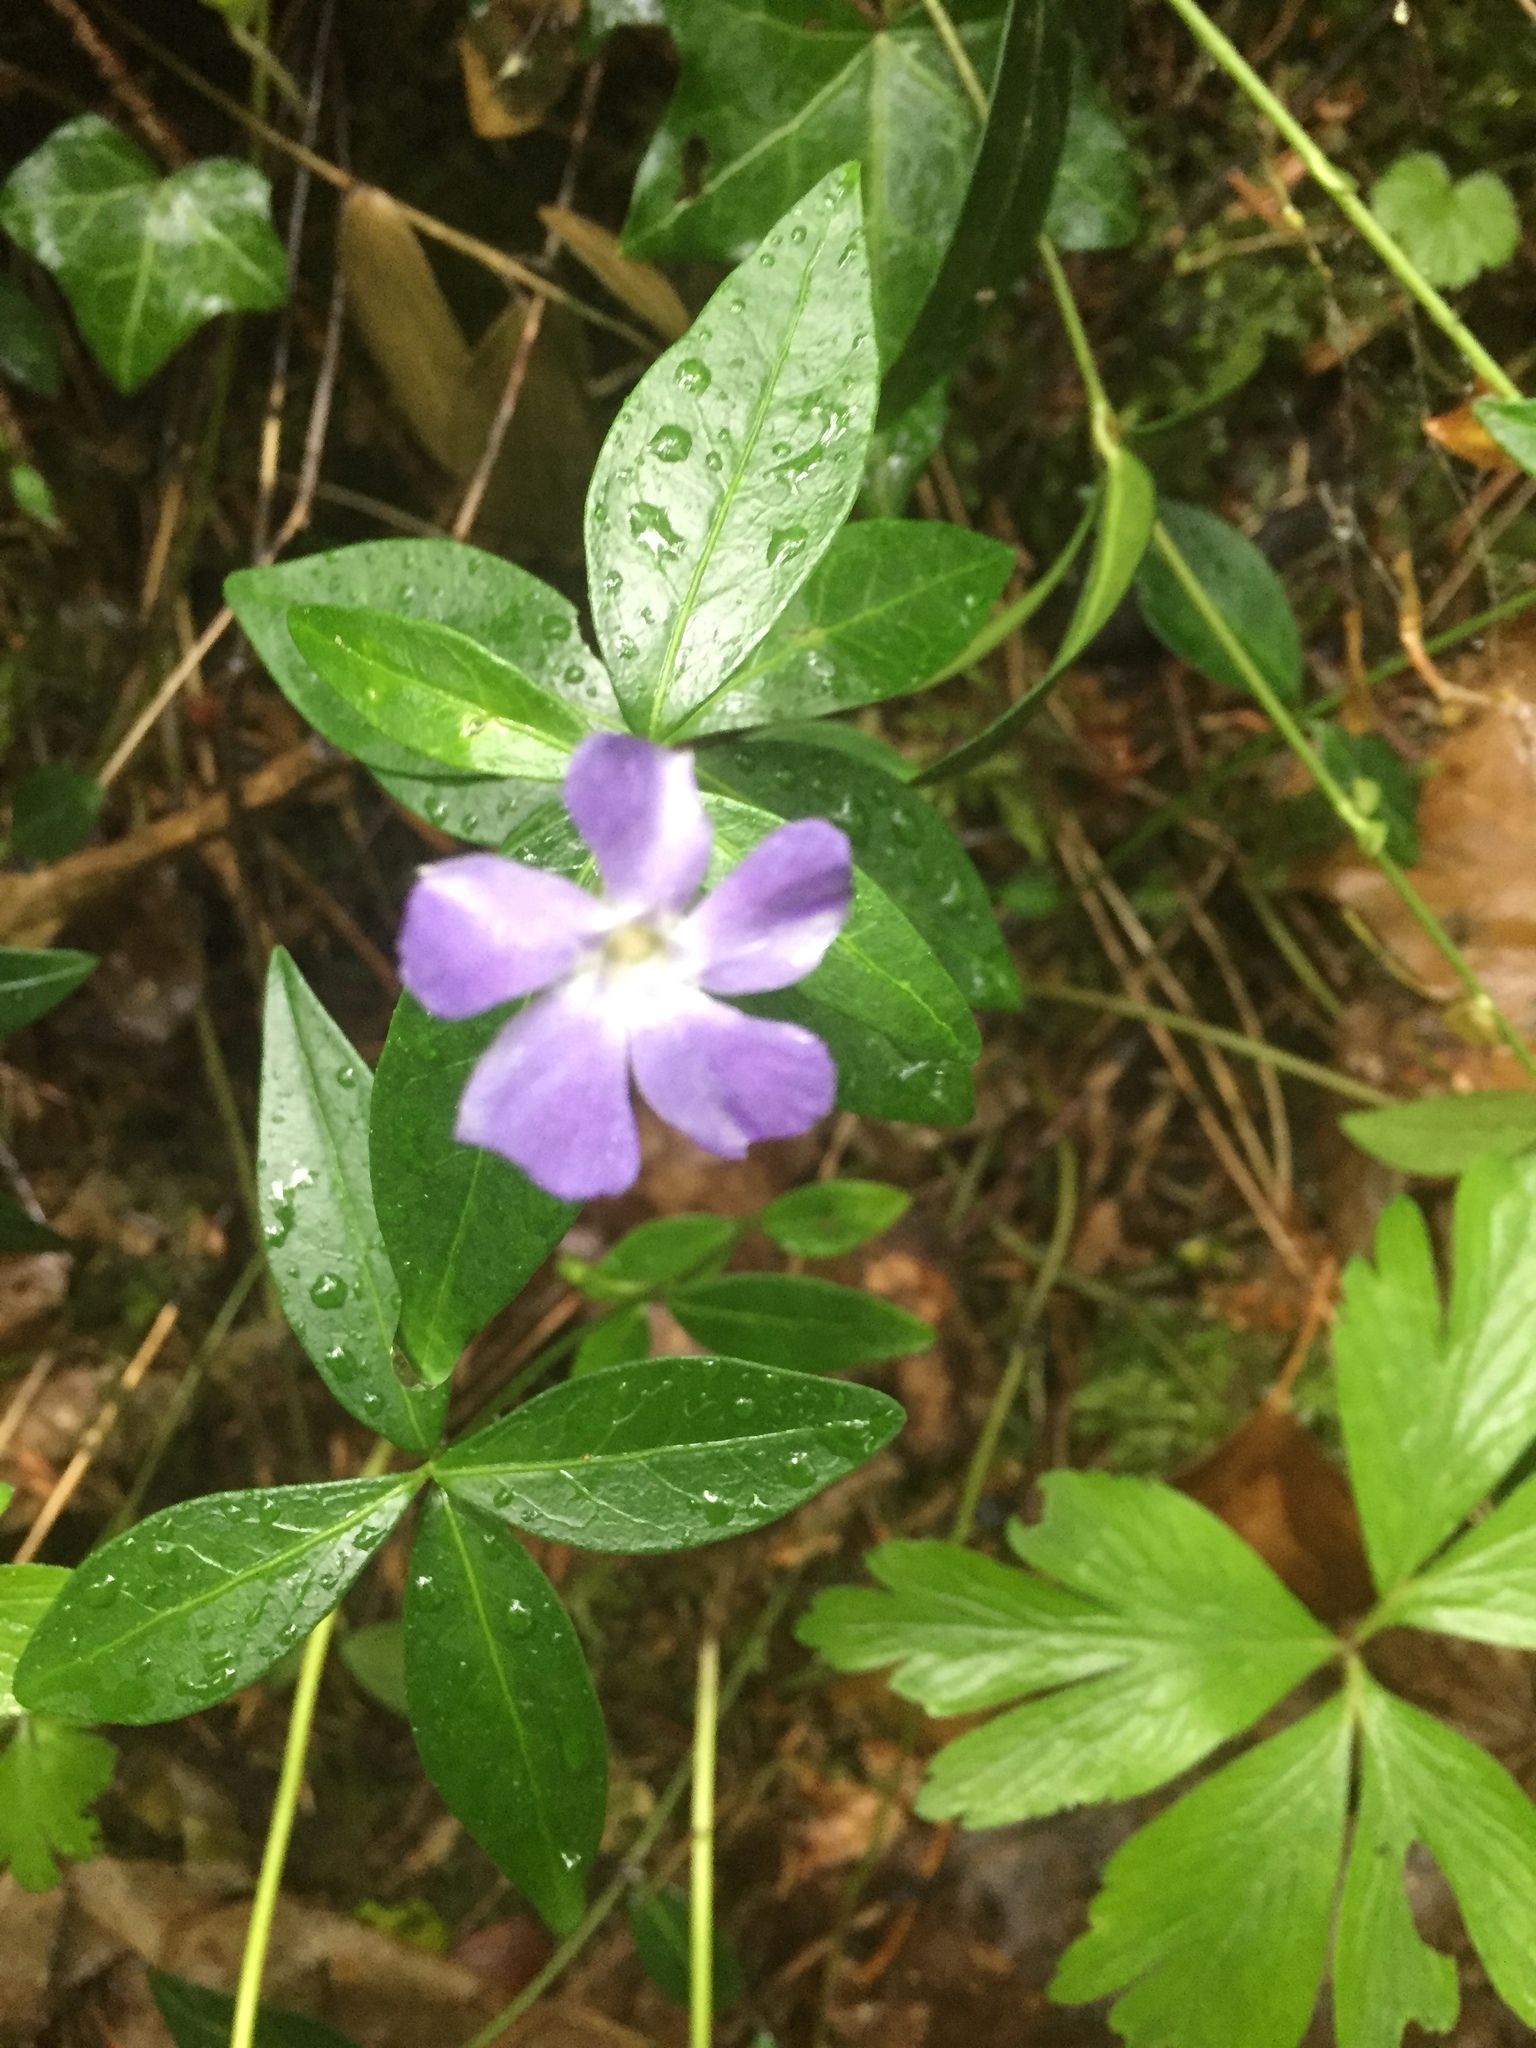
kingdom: Plantae
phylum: Tracheophyta
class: Magnoliopsida
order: Gentianales
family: Apocynaceae
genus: Vinca
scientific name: Vinca minor
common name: Lesser periwinkle
